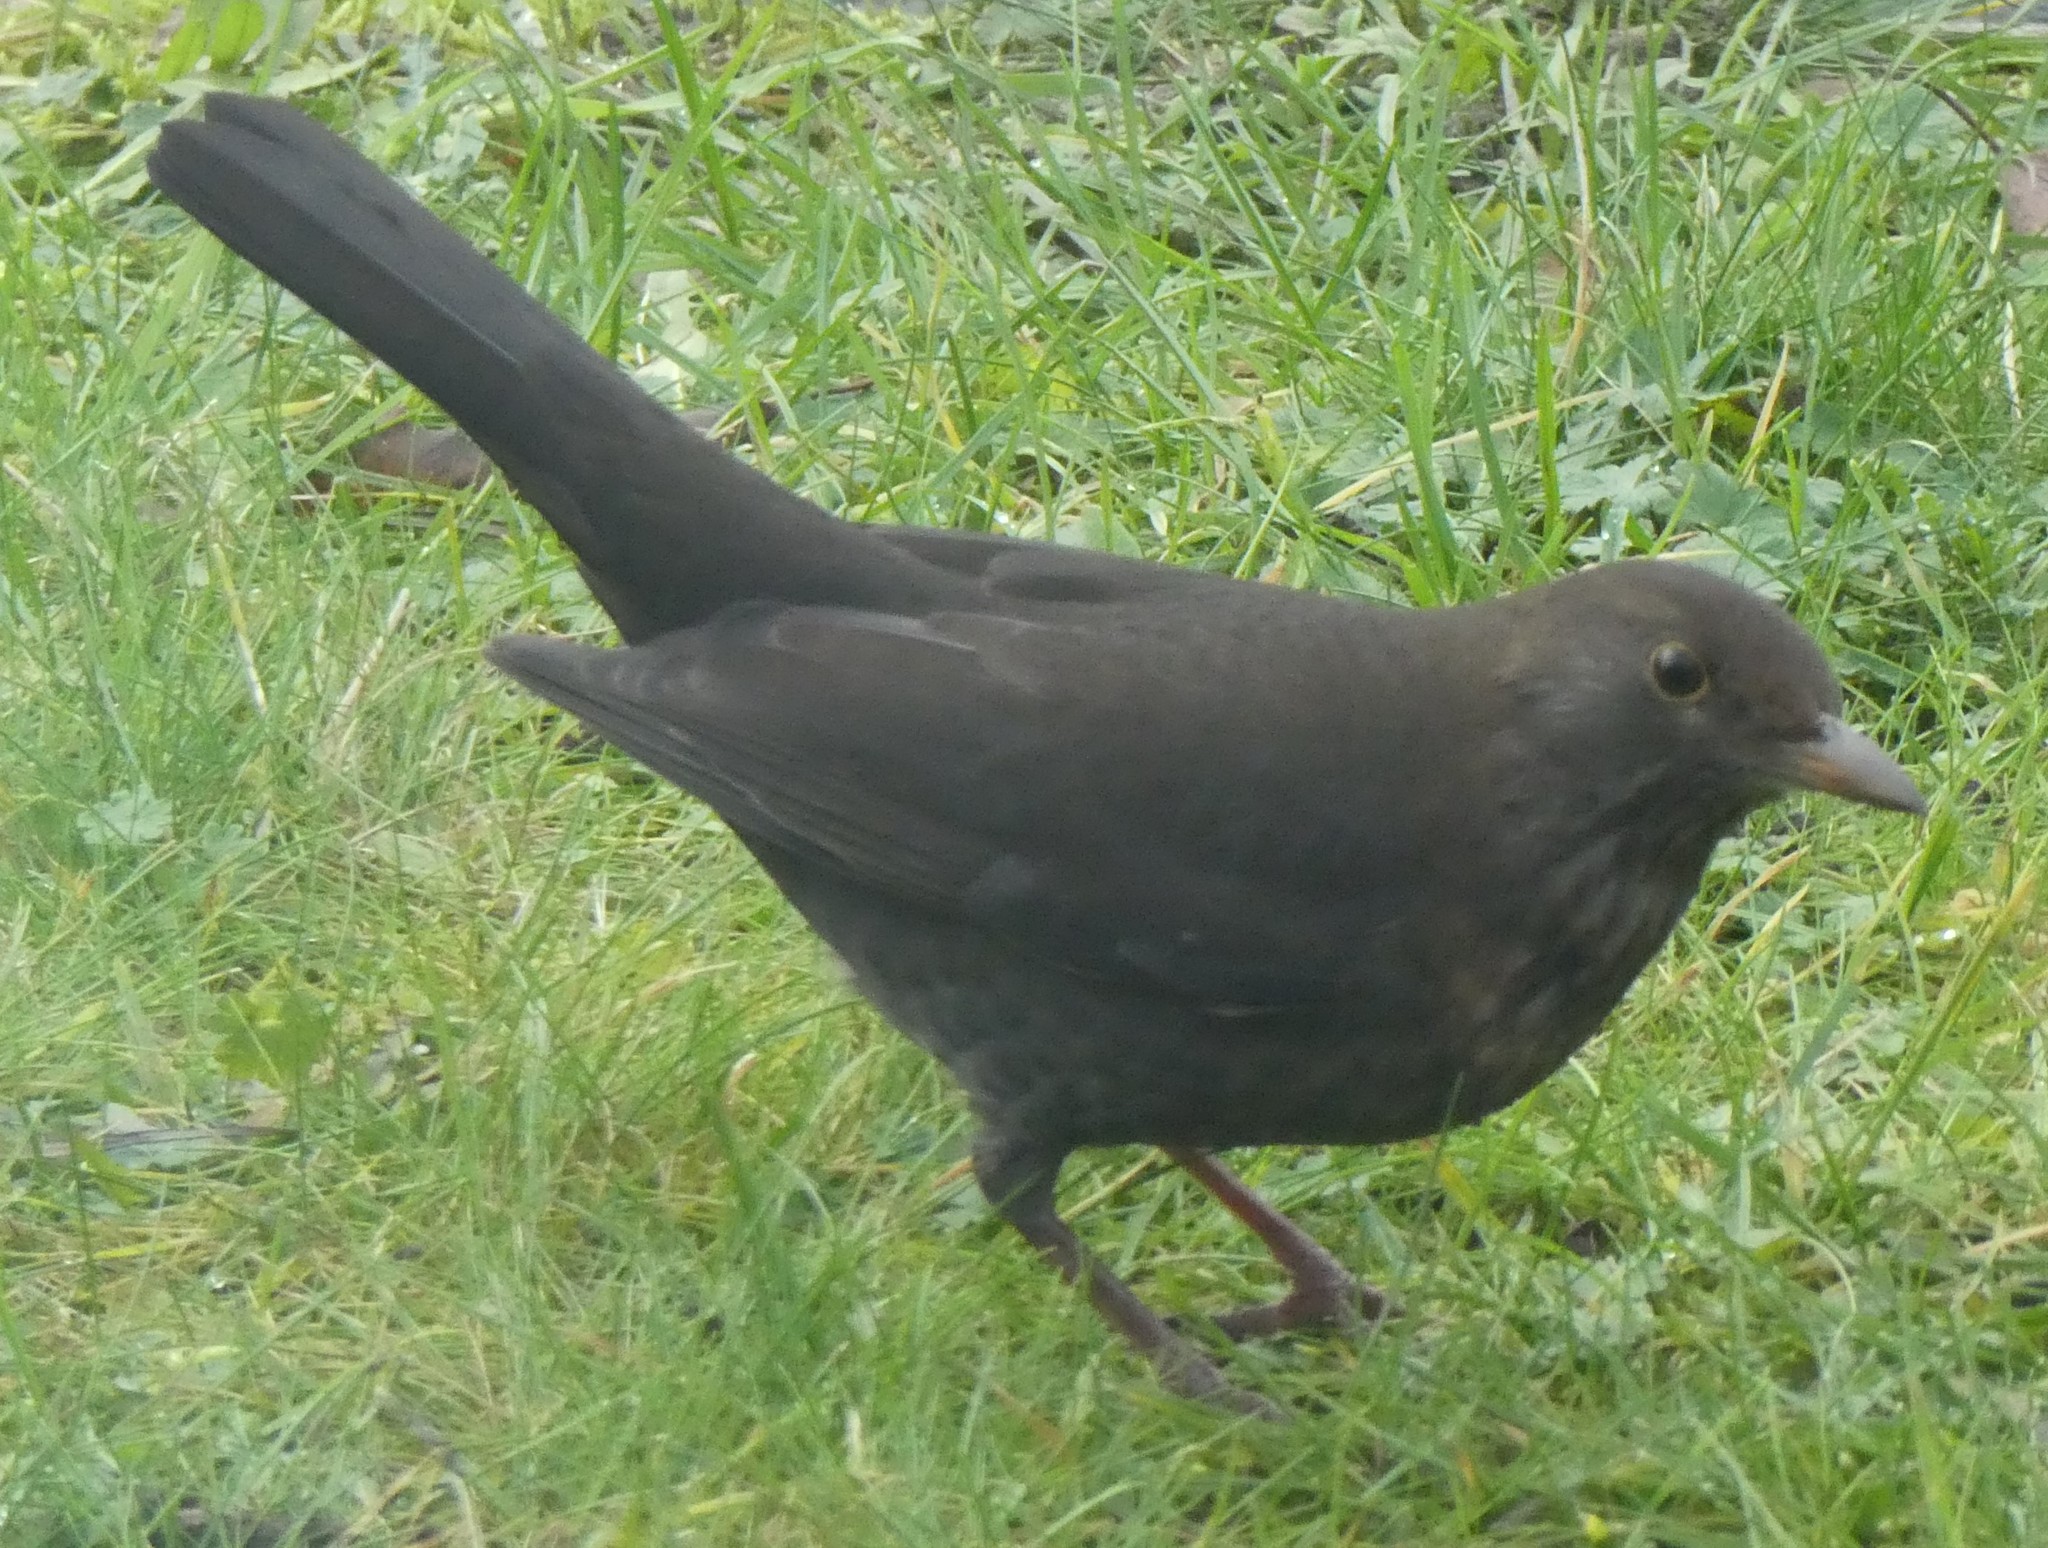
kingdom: Animalia
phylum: Chordata
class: Aves
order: Passeriformes
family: Turdidae
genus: Turdus
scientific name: Turdus merula
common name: Common blackbird
